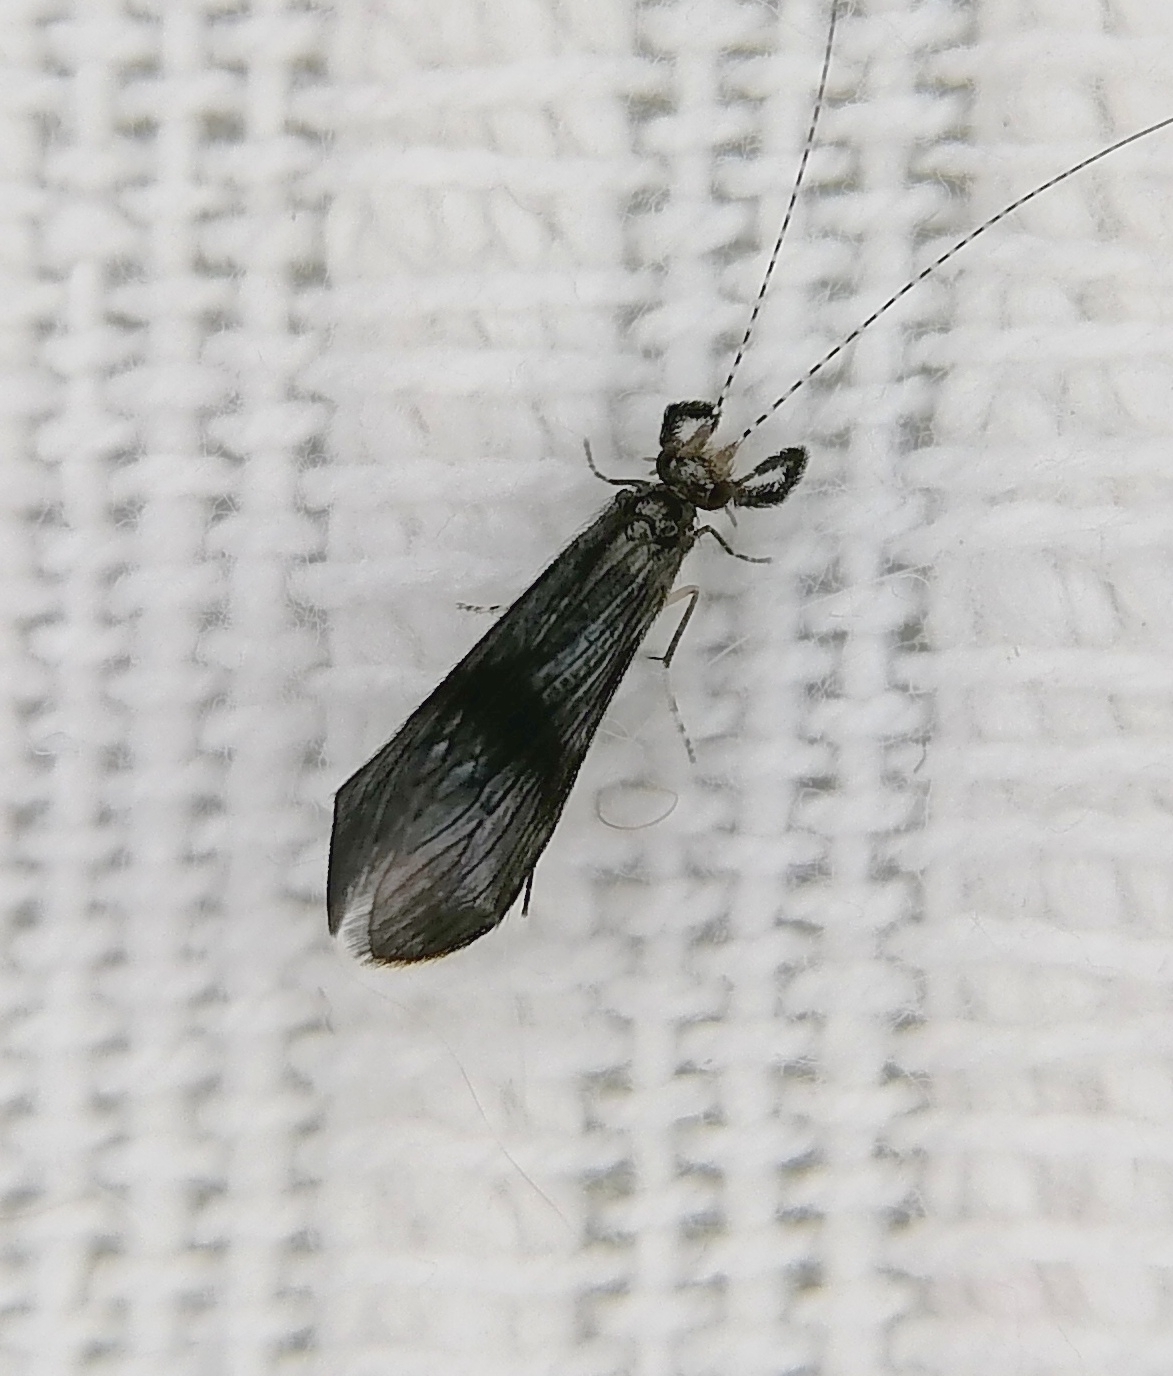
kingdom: Animalia
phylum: Arthropoda
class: Insecta
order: Trichoptera
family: Leptoceridae
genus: Mystacides
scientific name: Mystacides azureus
